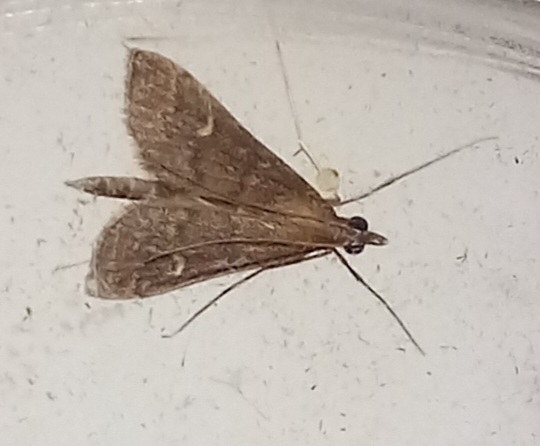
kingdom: Animalia
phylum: Arthropoda
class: Insecta
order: Lepidoptera
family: Crambidae
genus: Stenia
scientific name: Stenia Dolicharthria punctalis
